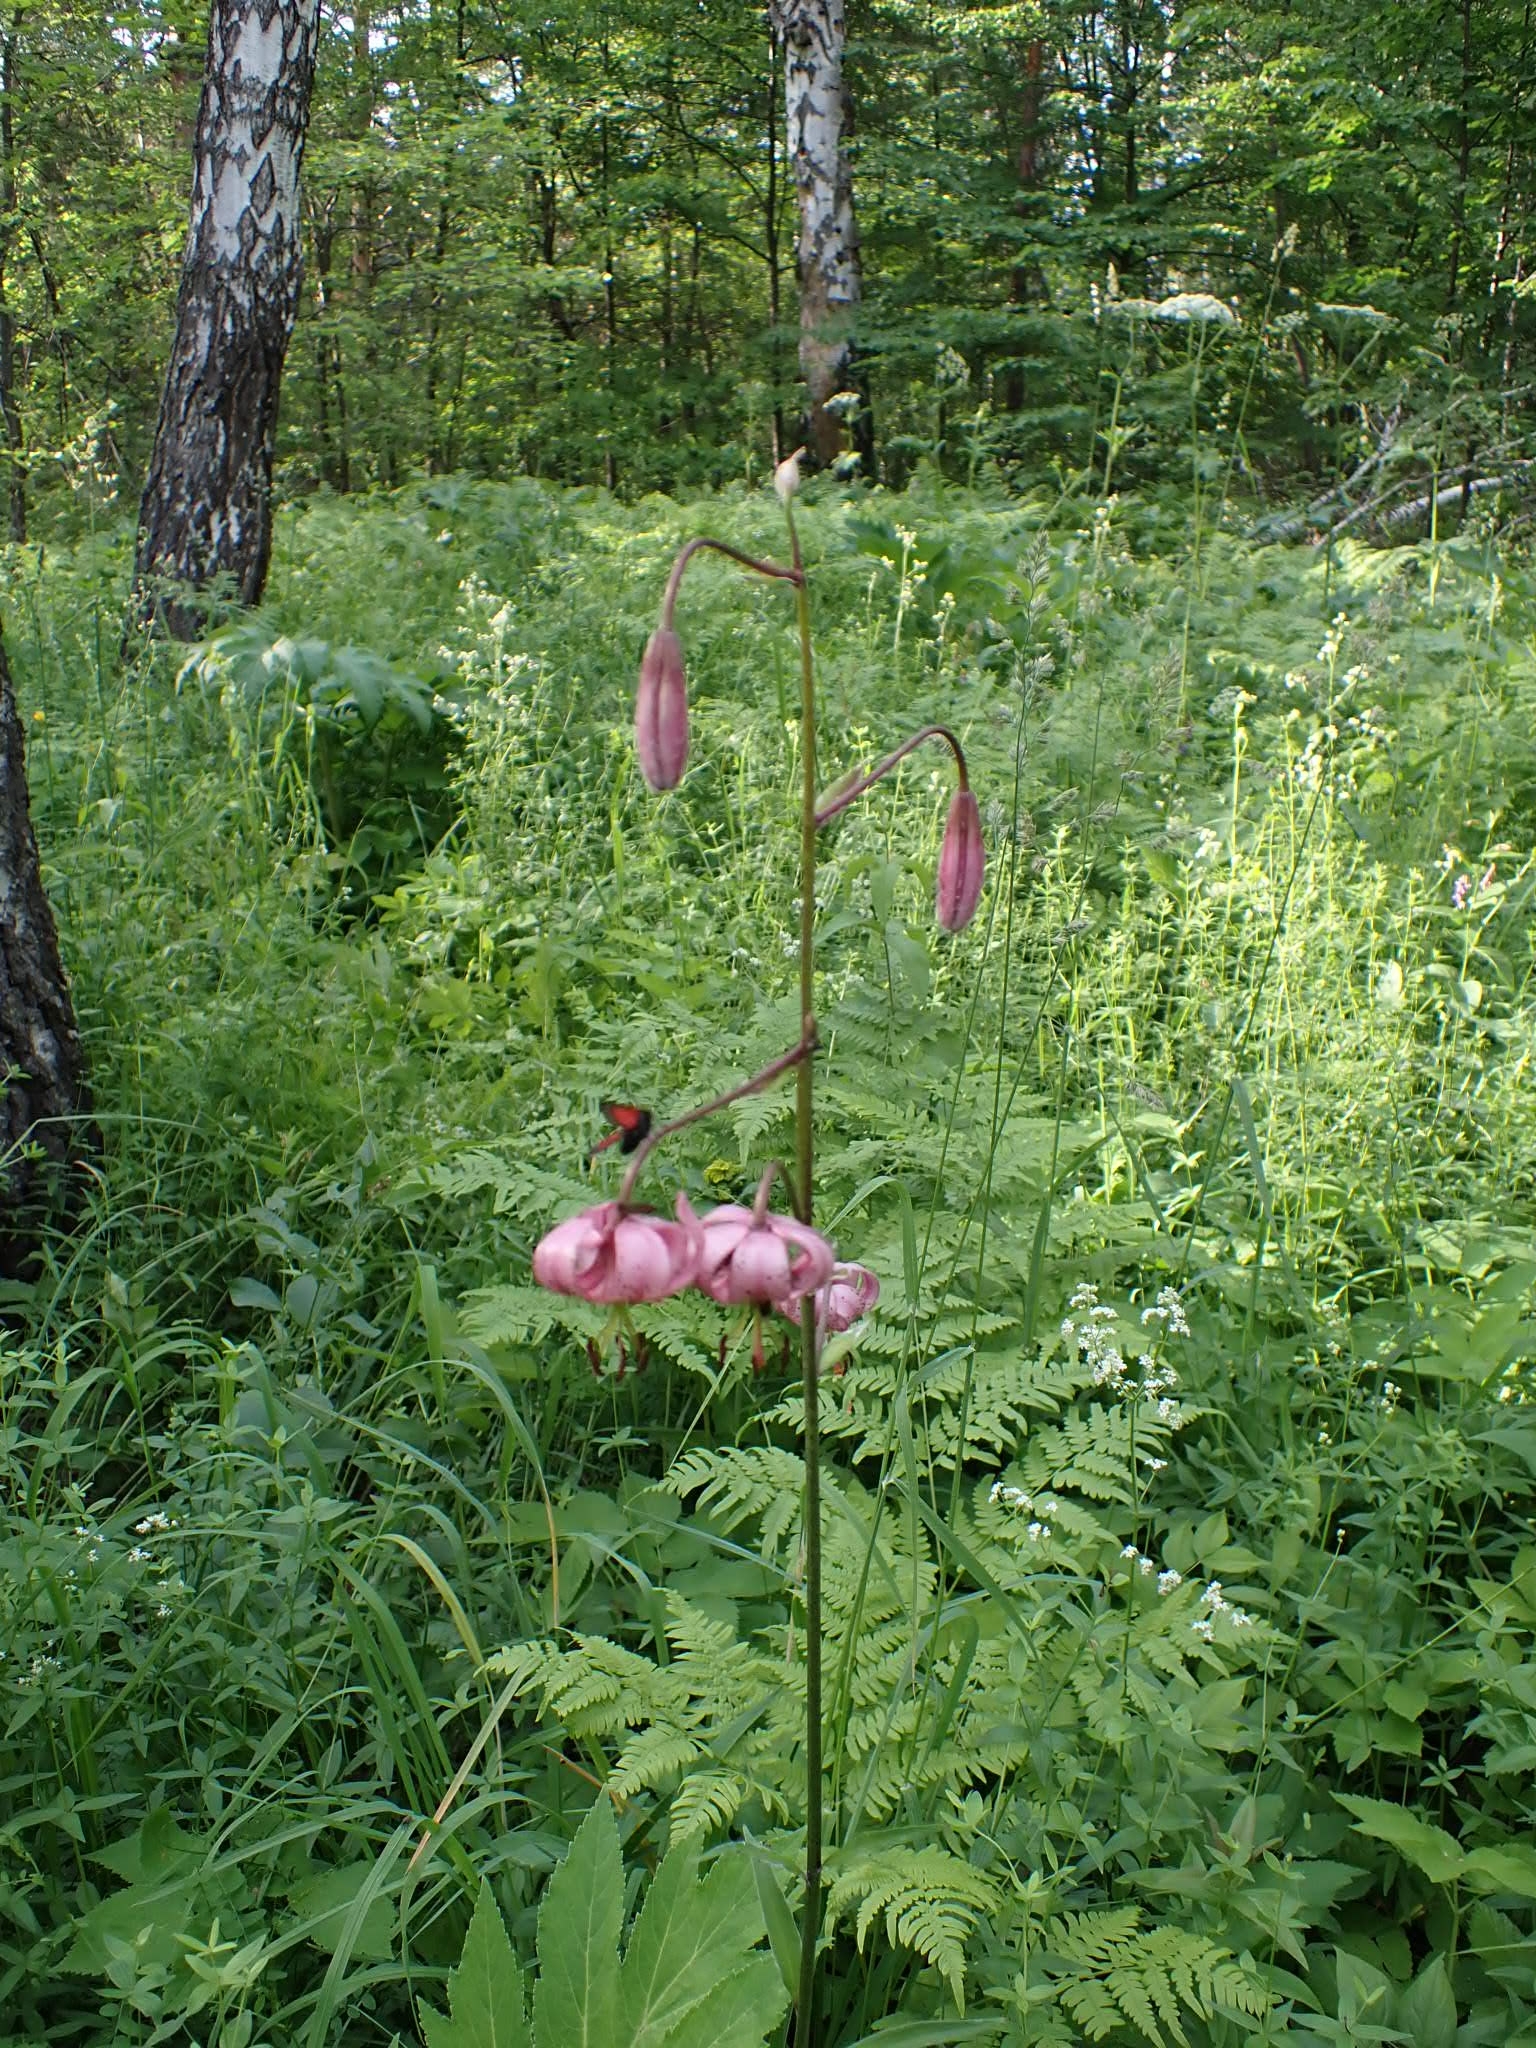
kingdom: Plantae
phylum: Tracheophyta
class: Liliopsida
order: Liliales
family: Liliaceae
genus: Lilium
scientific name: Lilium martagon
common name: Martagon lily
